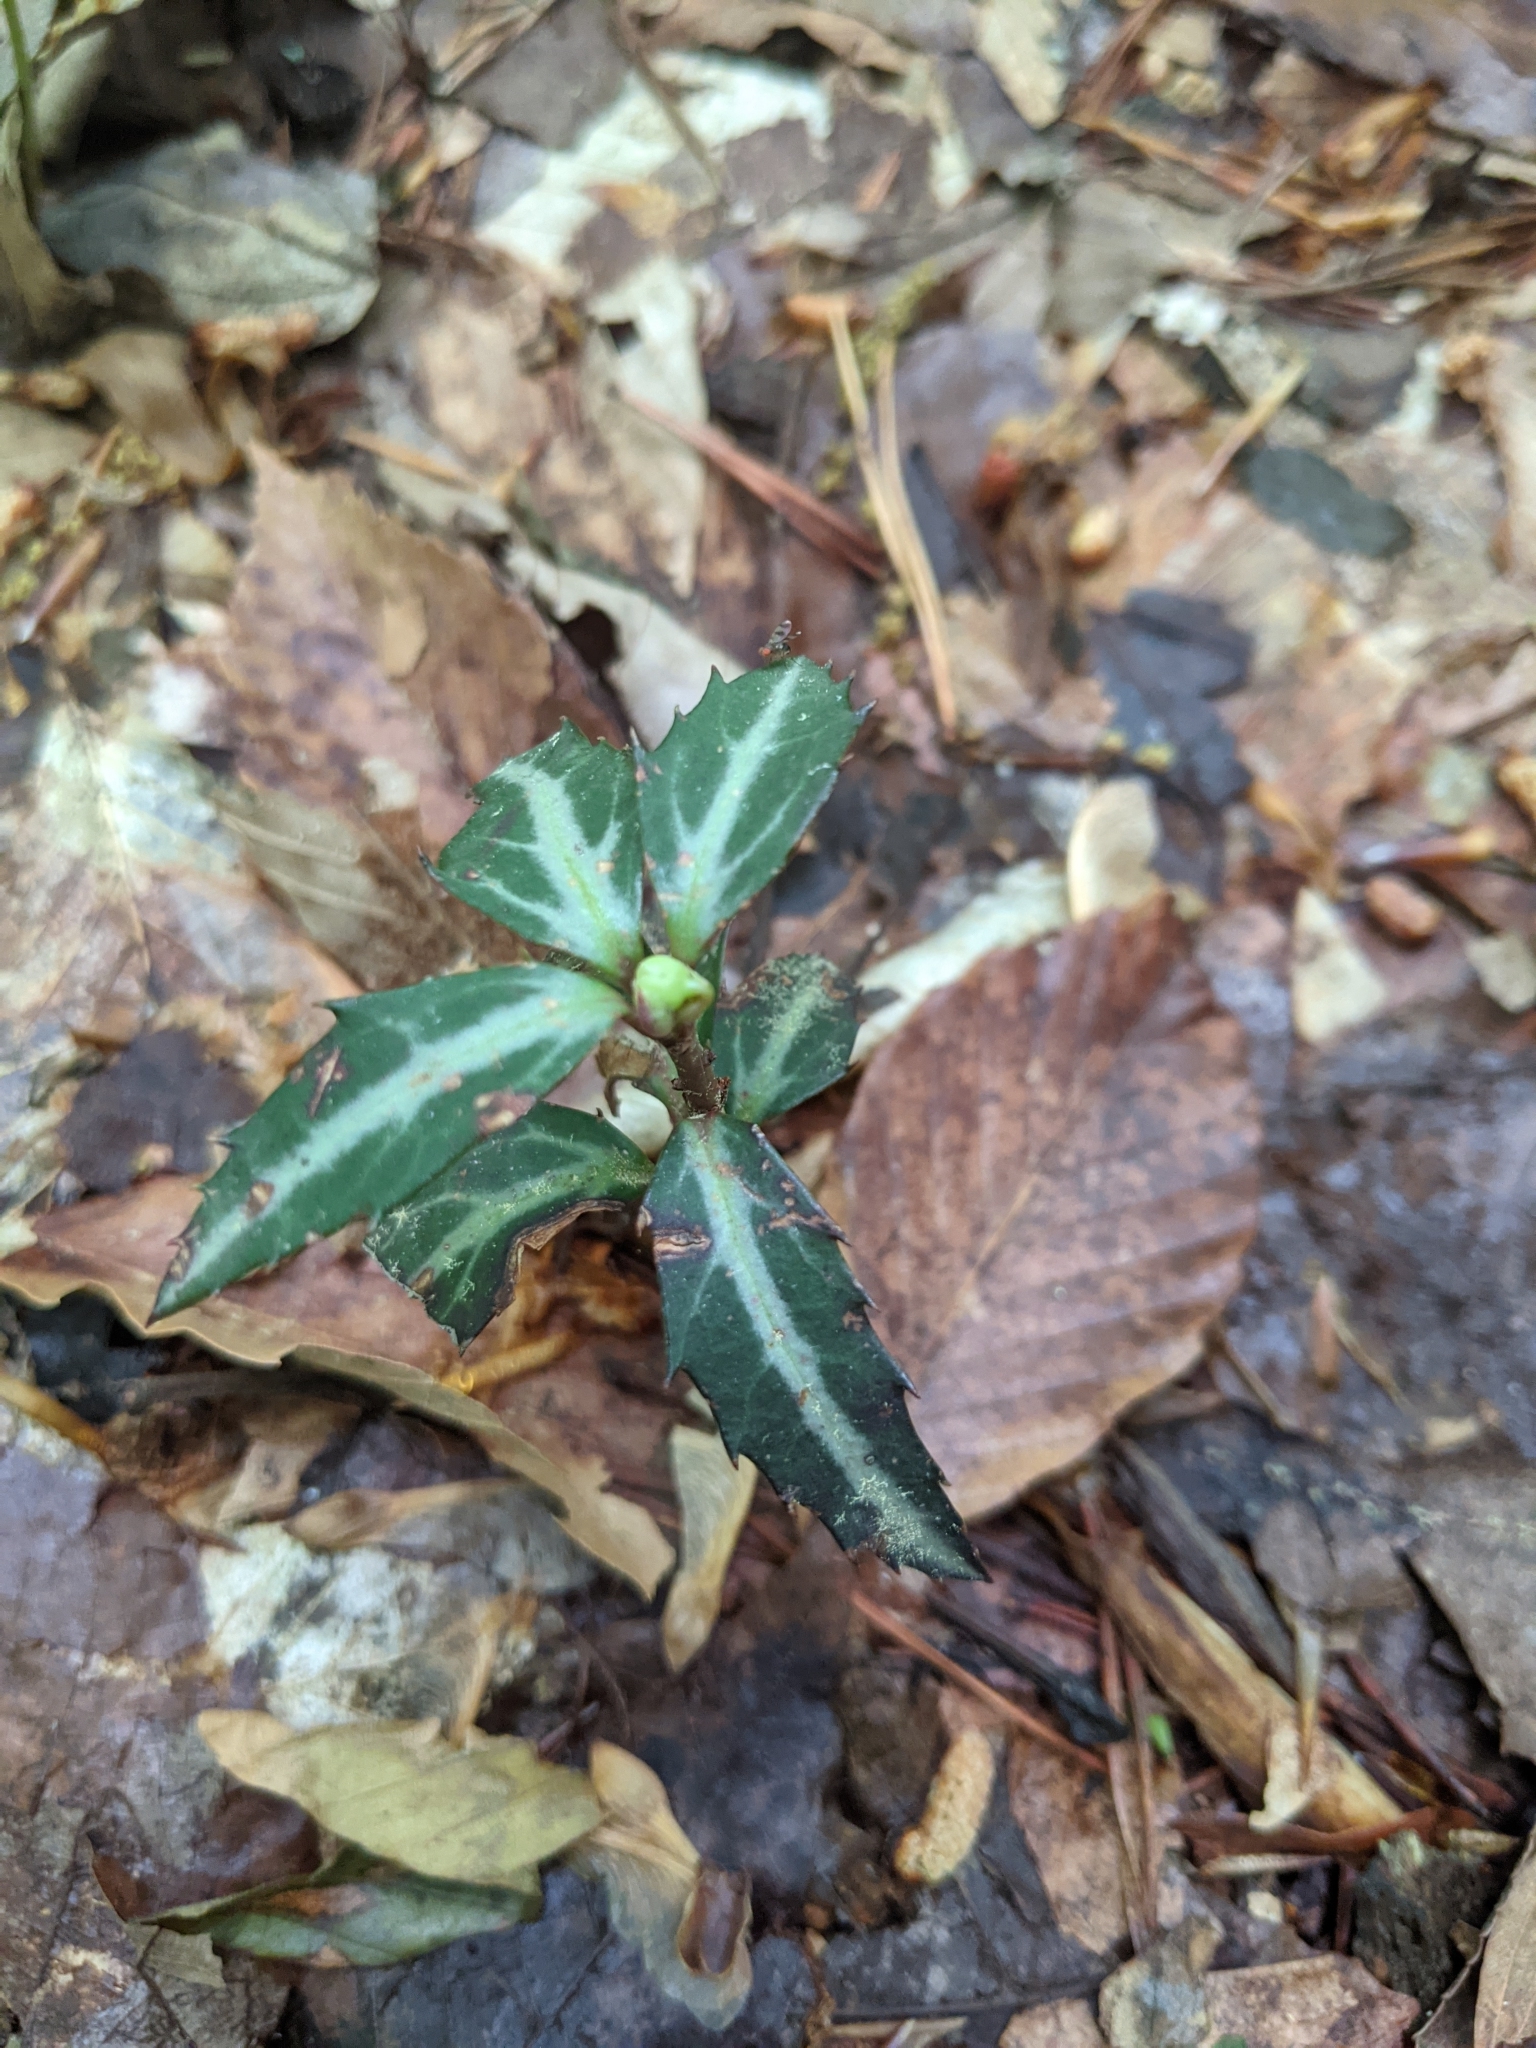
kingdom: Plantae
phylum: Tracheophyta
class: Magnoliopsida
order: Ericales
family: Ericaceae
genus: Chimaphila
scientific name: Chimaphila maculata
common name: Spotted pipsissewa
